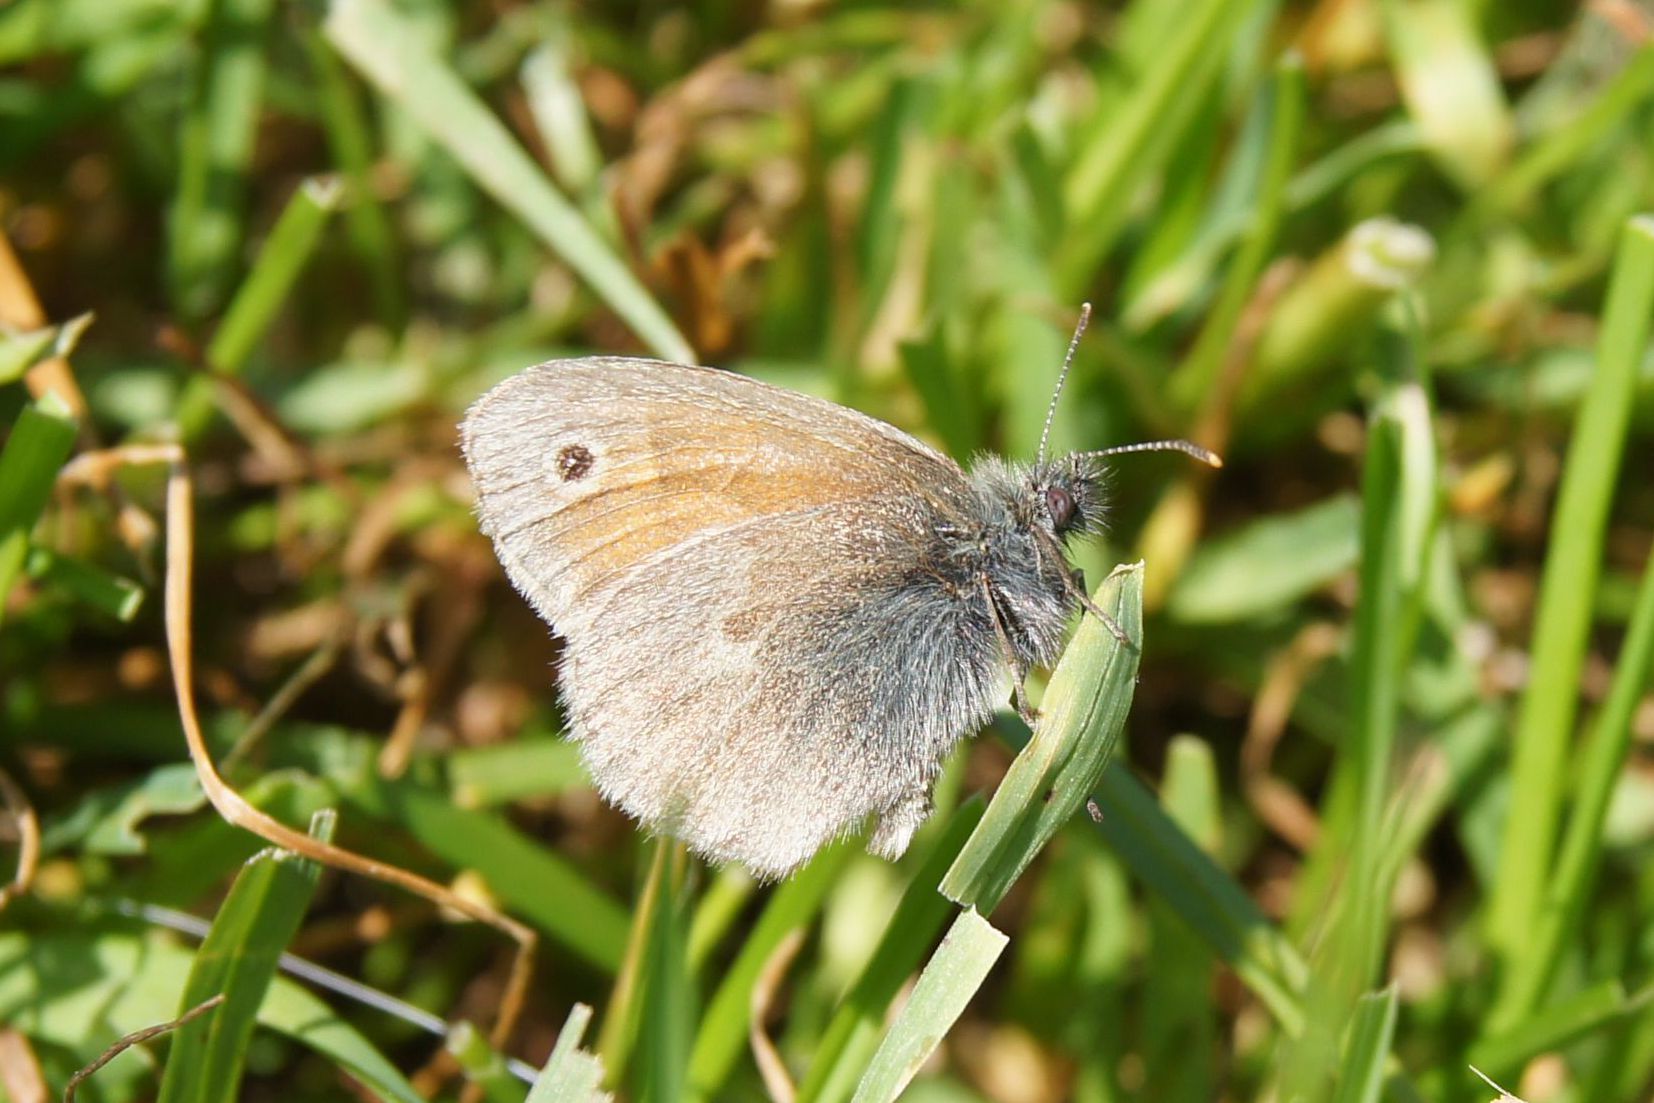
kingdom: Animalia
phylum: Arthropoda
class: Insecta
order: Lepidoptera
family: Nymphalidae
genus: Coenonympha
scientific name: Coenonympha pamphilus
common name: Small heath
